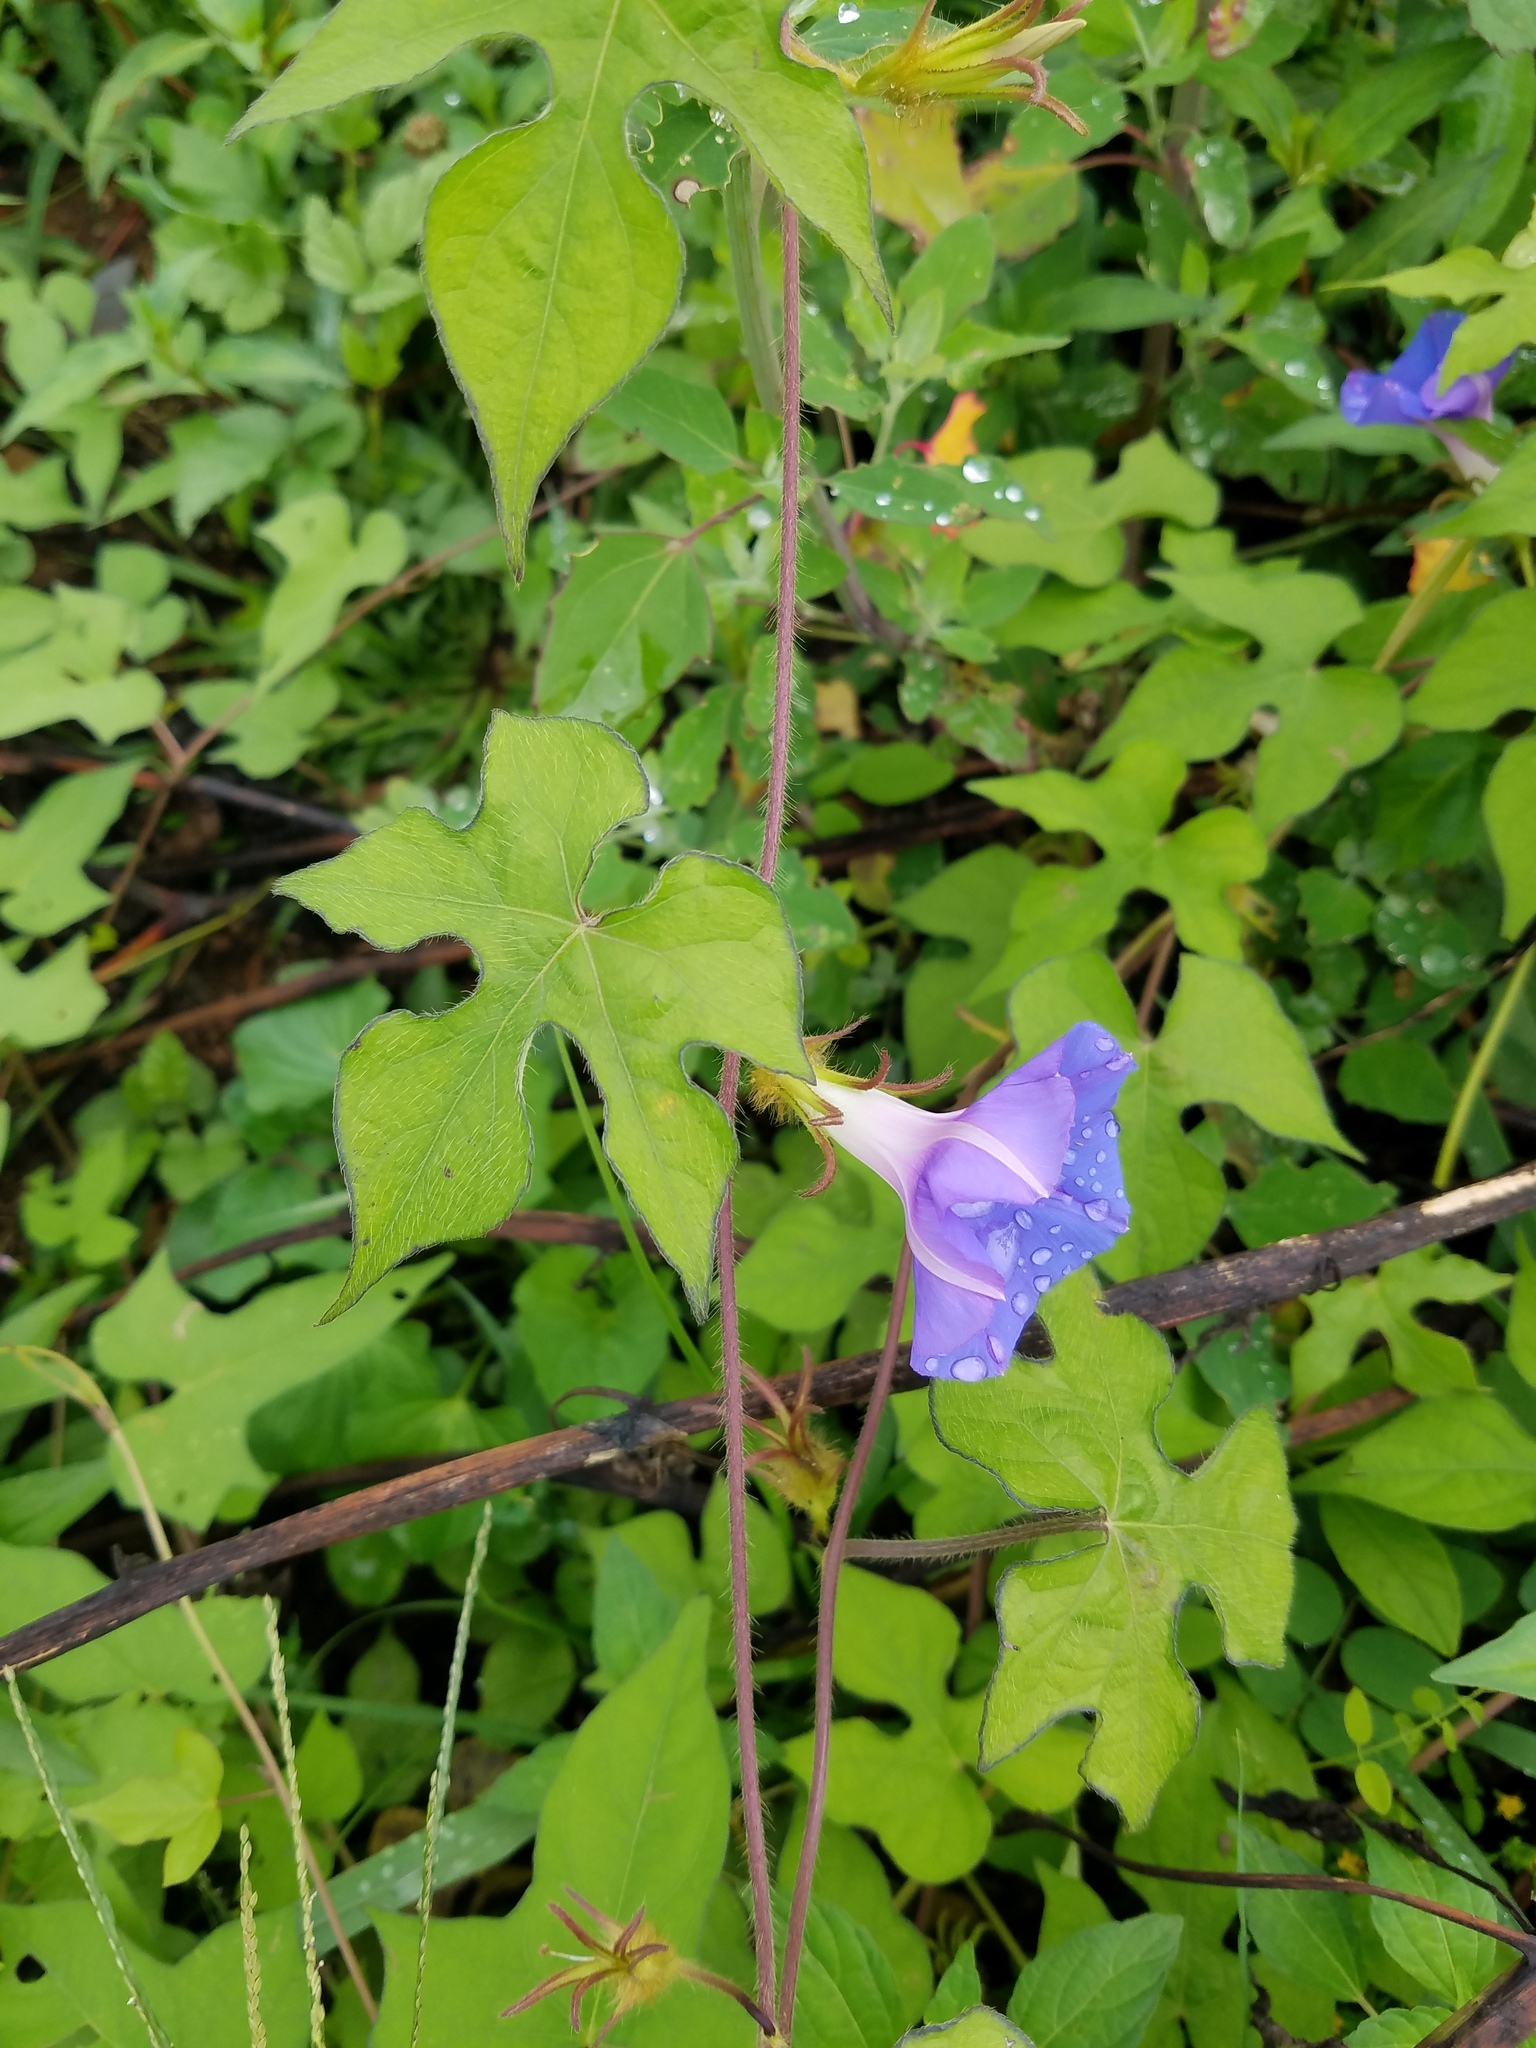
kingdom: Plantae
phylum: Tracheophyta
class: Magnoliopsida
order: Solanales
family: Convolvulaceae
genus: Ipomoea
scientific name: Ipomoea hederacea
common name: Ivy-leaved morning-glory
